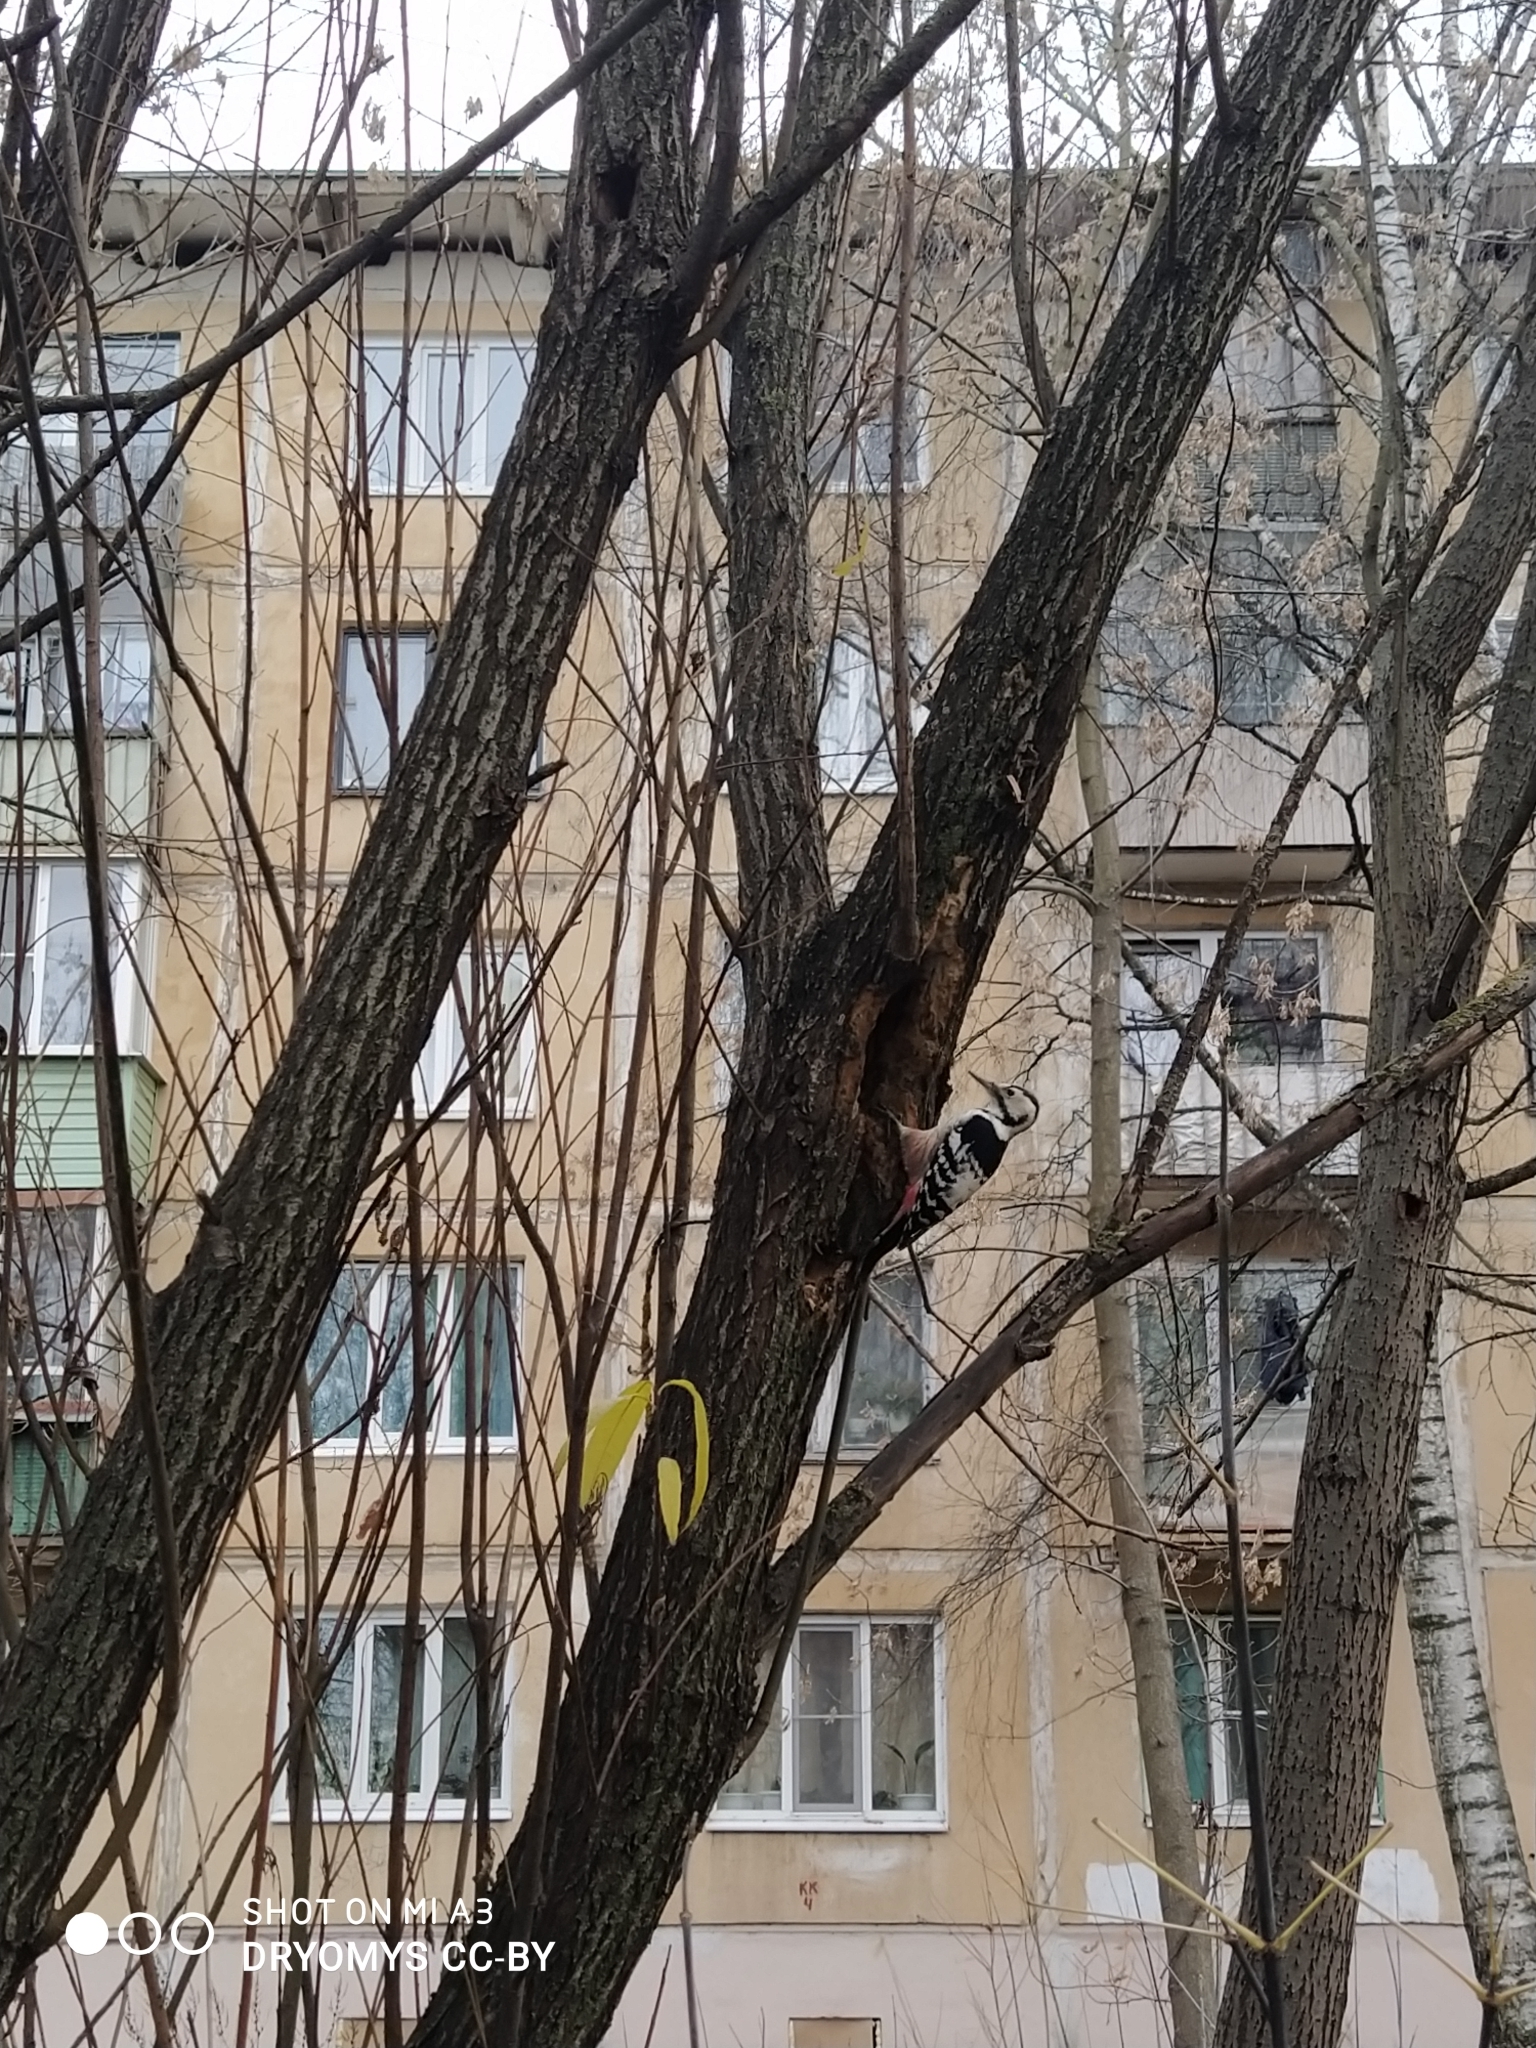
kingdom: Animalia
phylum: Chordata
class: Aves
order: Piciformes
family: Picidae
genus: Dendrocopos
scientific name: Dendrocopos leucotos
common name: White-backed woodpecker
